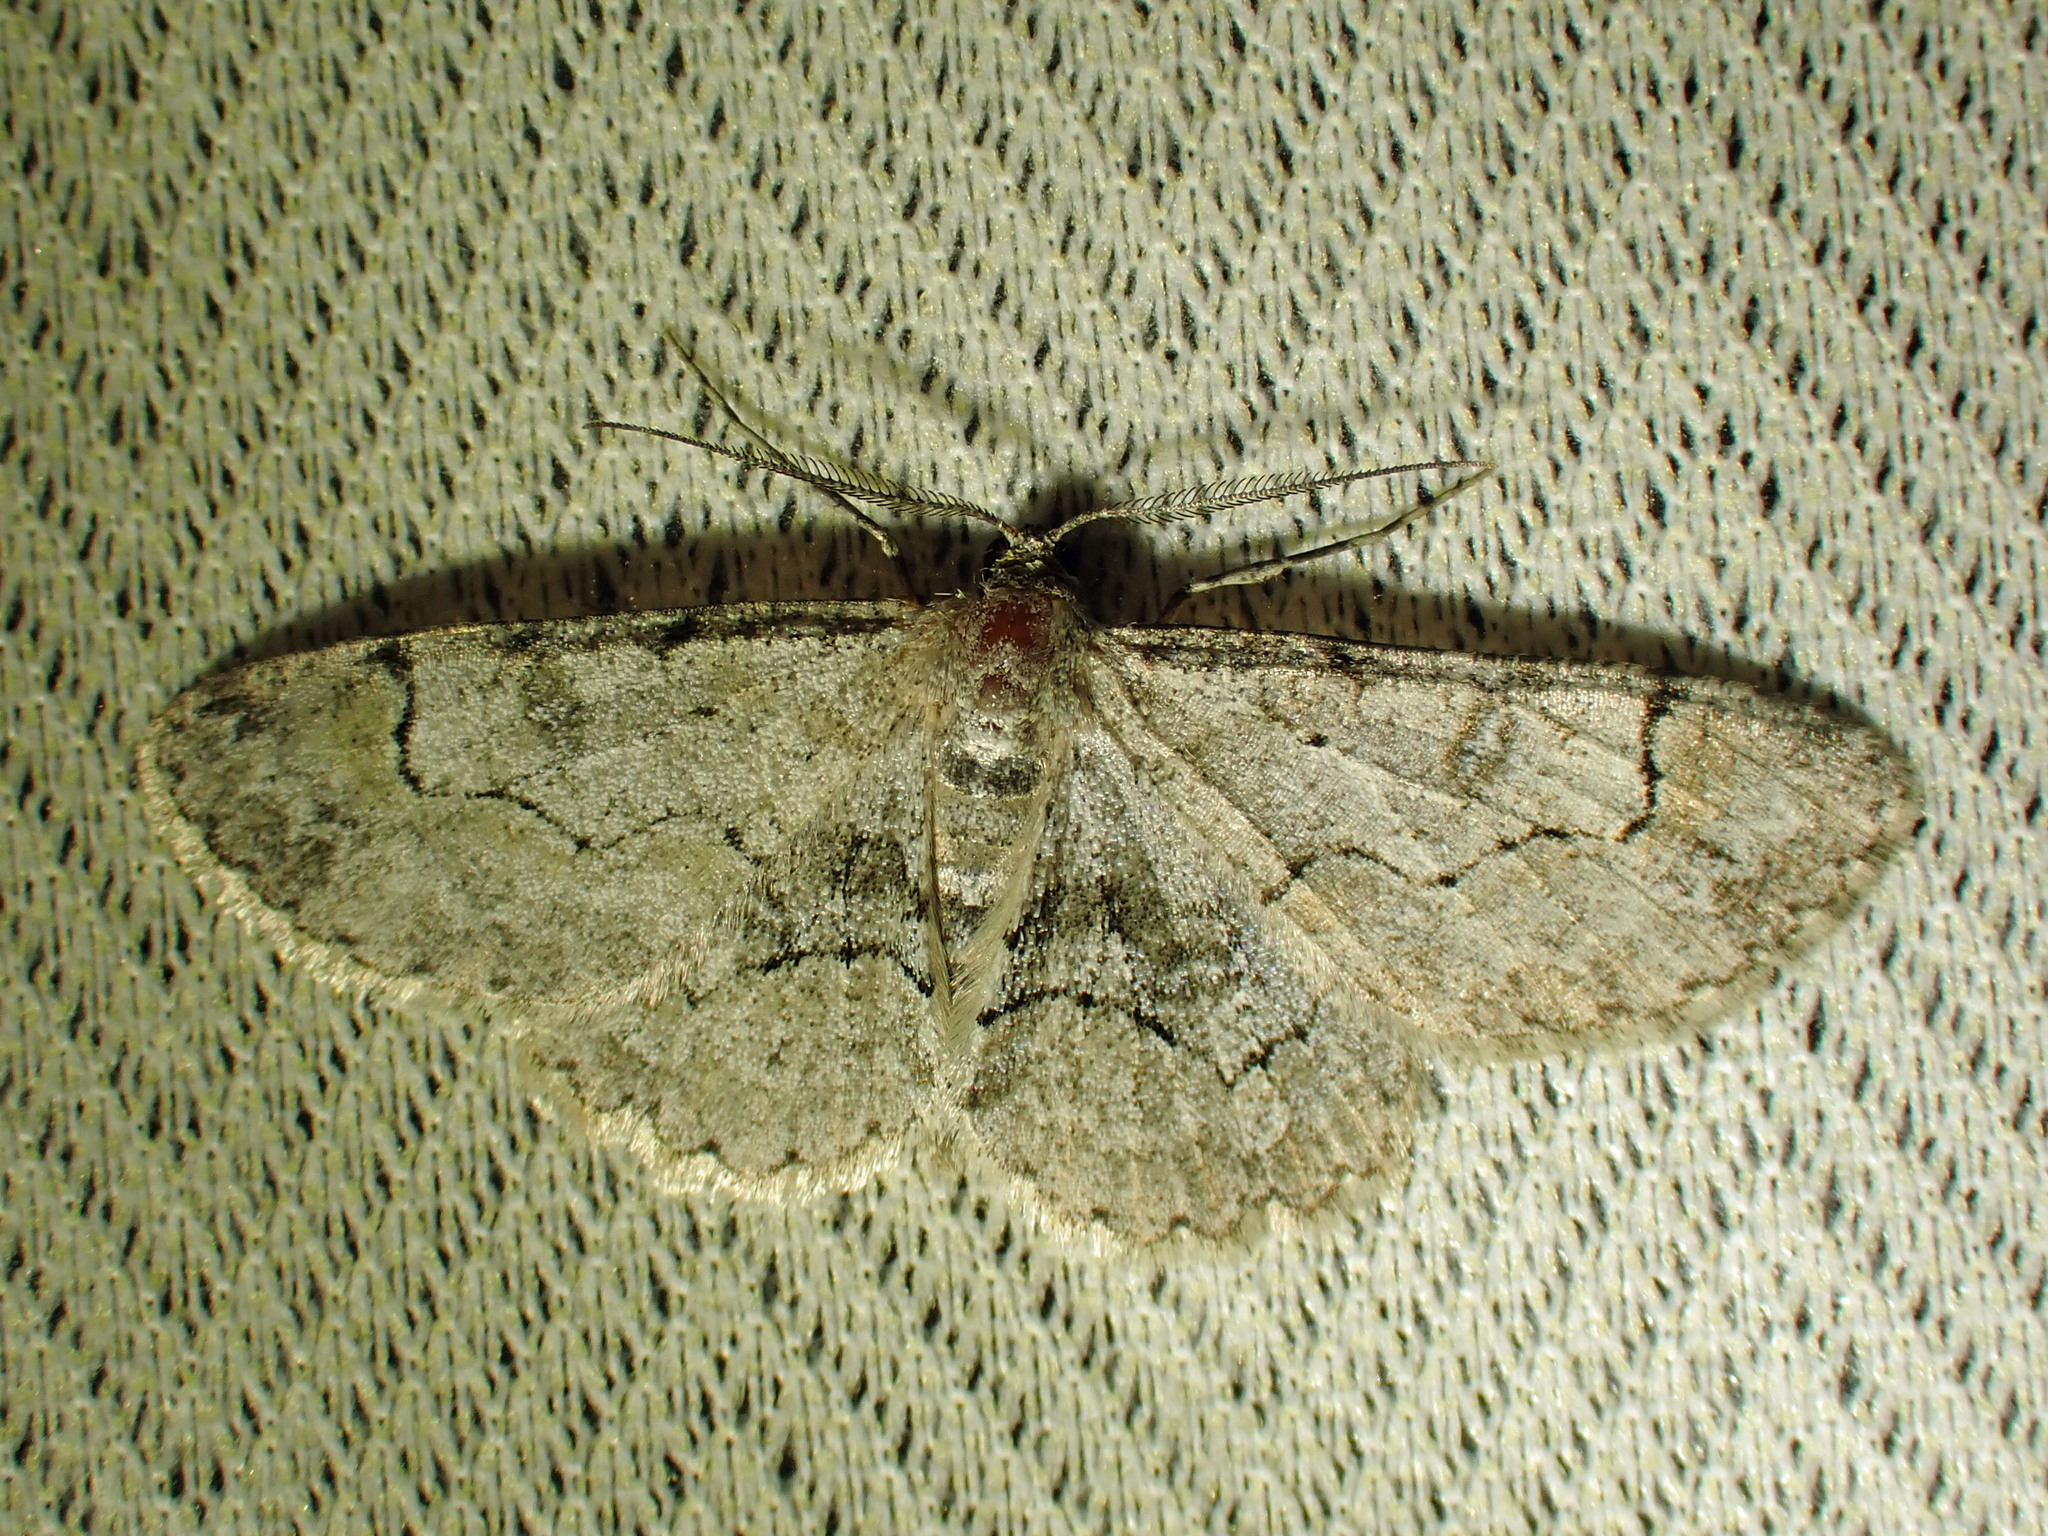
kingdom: Animalia
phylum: Arthropoda
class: Insecta
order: Lepidoptera
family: Geometridae
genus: Iridopsis
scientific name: Iridopsis larvaria
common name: Bent-line gray
